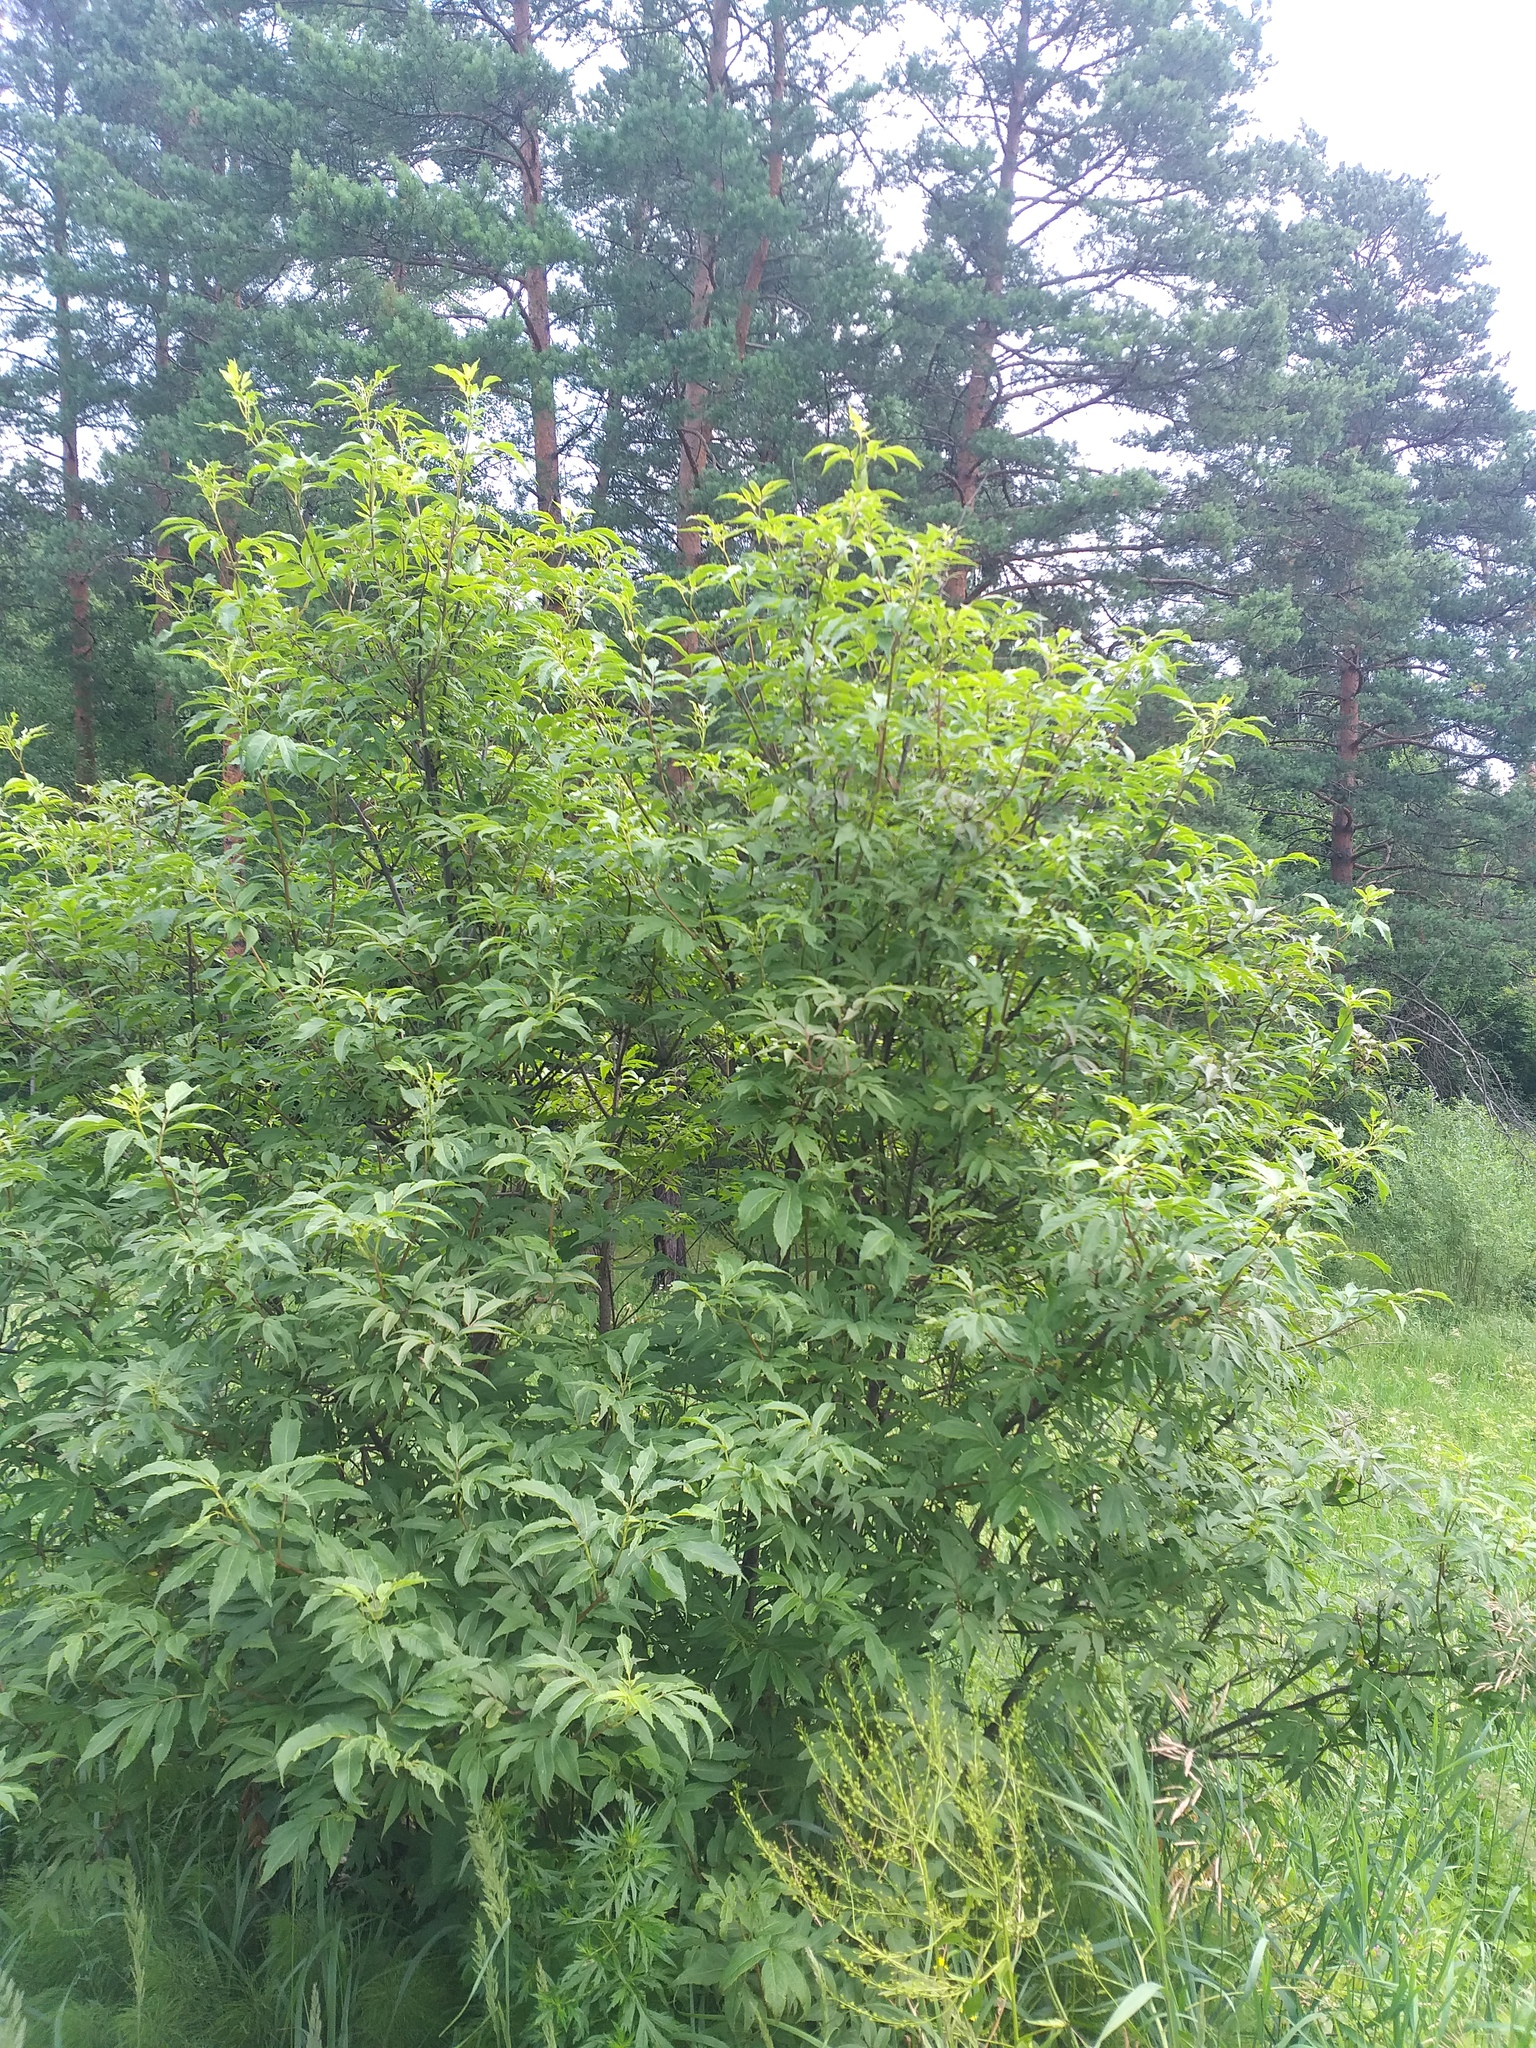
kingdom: Plantae
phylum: Tracheophyta
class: Magnoliopsida
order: Dipsacales
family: Viburnaceae
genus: Sambucus
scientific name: Sambucus racemosa
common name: Red-berried elder
